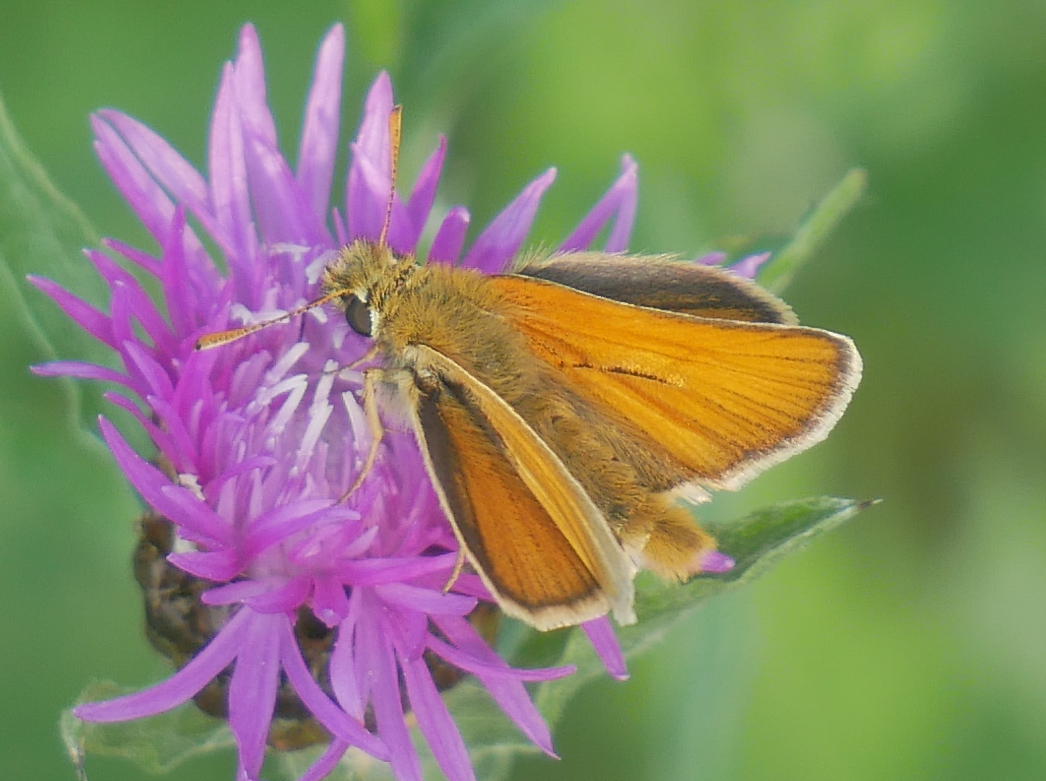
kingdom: Animalia
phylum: Arthropoda
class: Insecta
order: Lepidoptera
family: Hesperiidae
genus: Thymelicus
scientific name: Thymelicus sylvestris
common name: Small skipper
